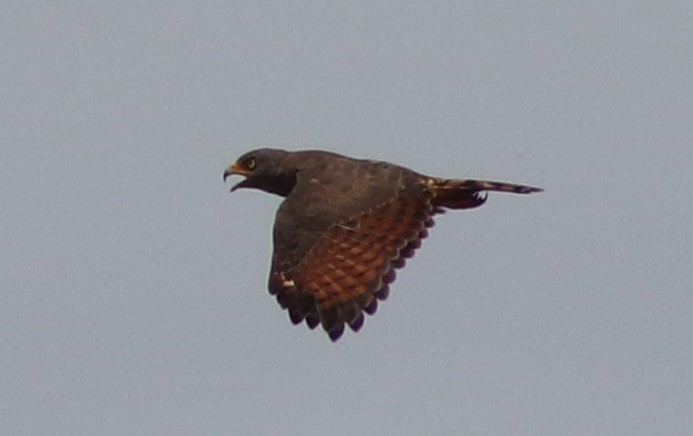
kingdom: Animalia
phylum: Chordata
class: Aves
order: Accipitriformes
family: Accipitridae
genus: Rupornis
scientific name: Rupornis magnirostris
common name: Roadside hawk
